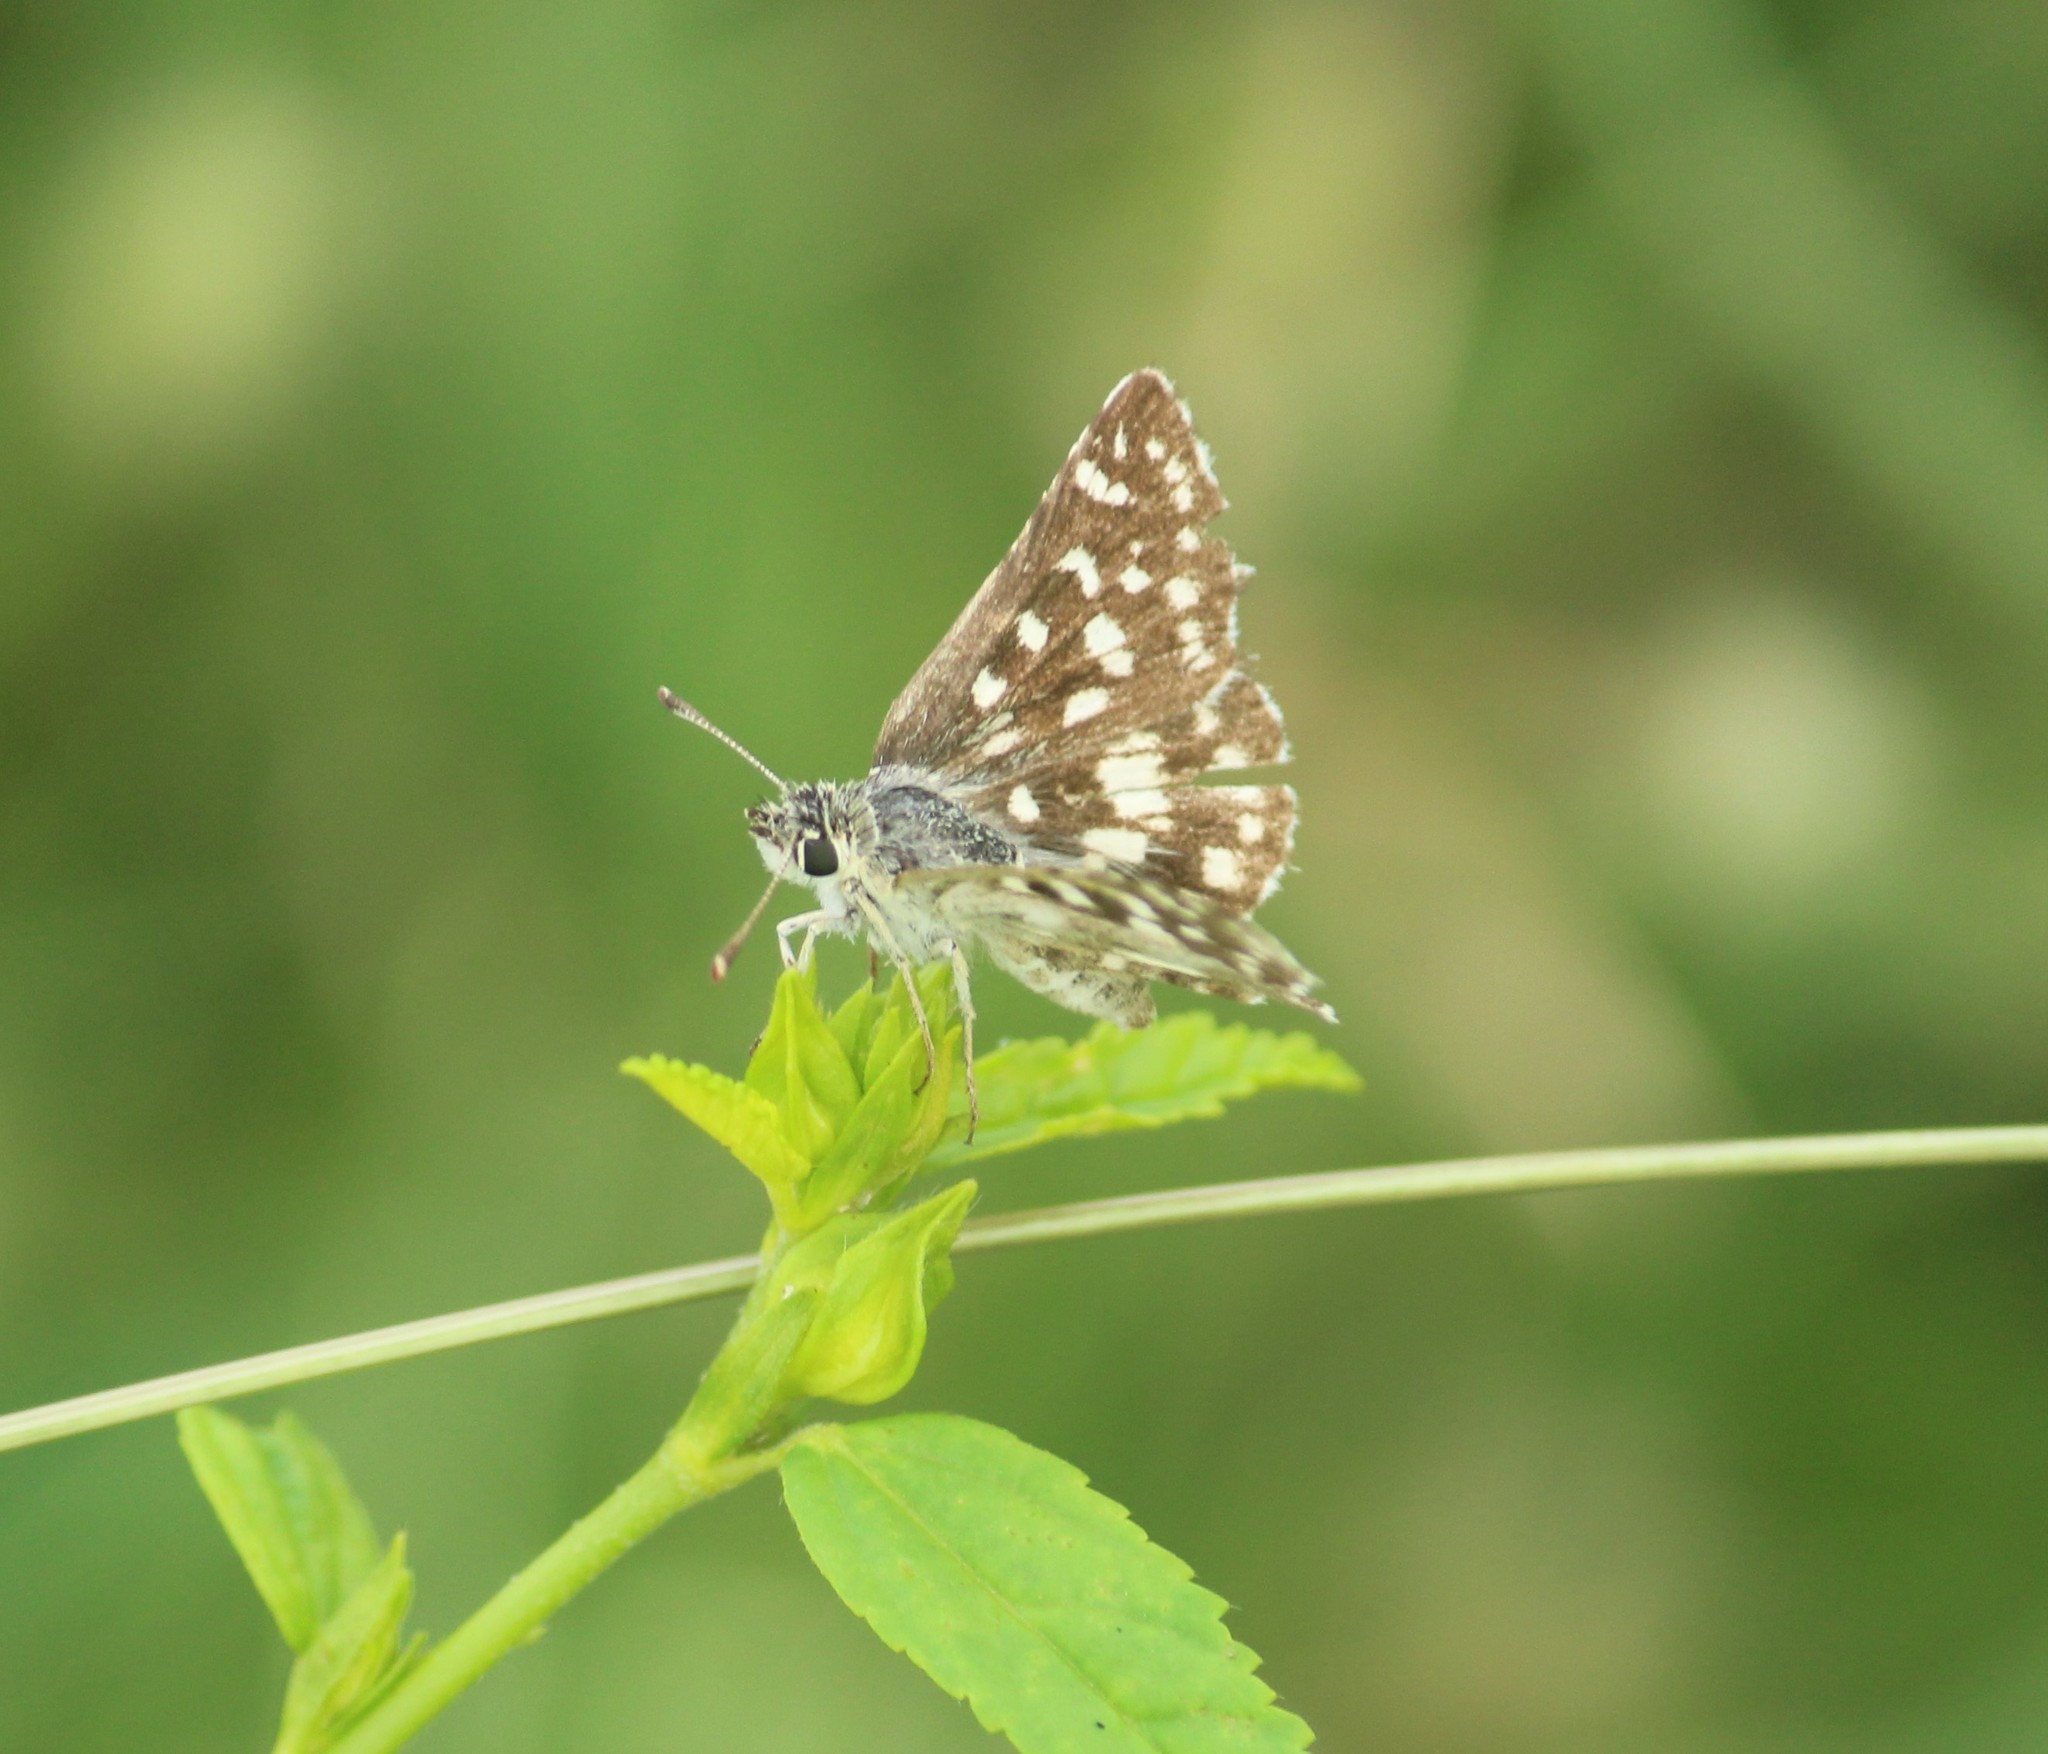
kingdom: Animalia
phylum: Arthropoda
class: Insecta
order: Lepidoptera
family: Hesperiidae
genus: Spialia
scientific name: Spialia galba
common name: Indian skipper
